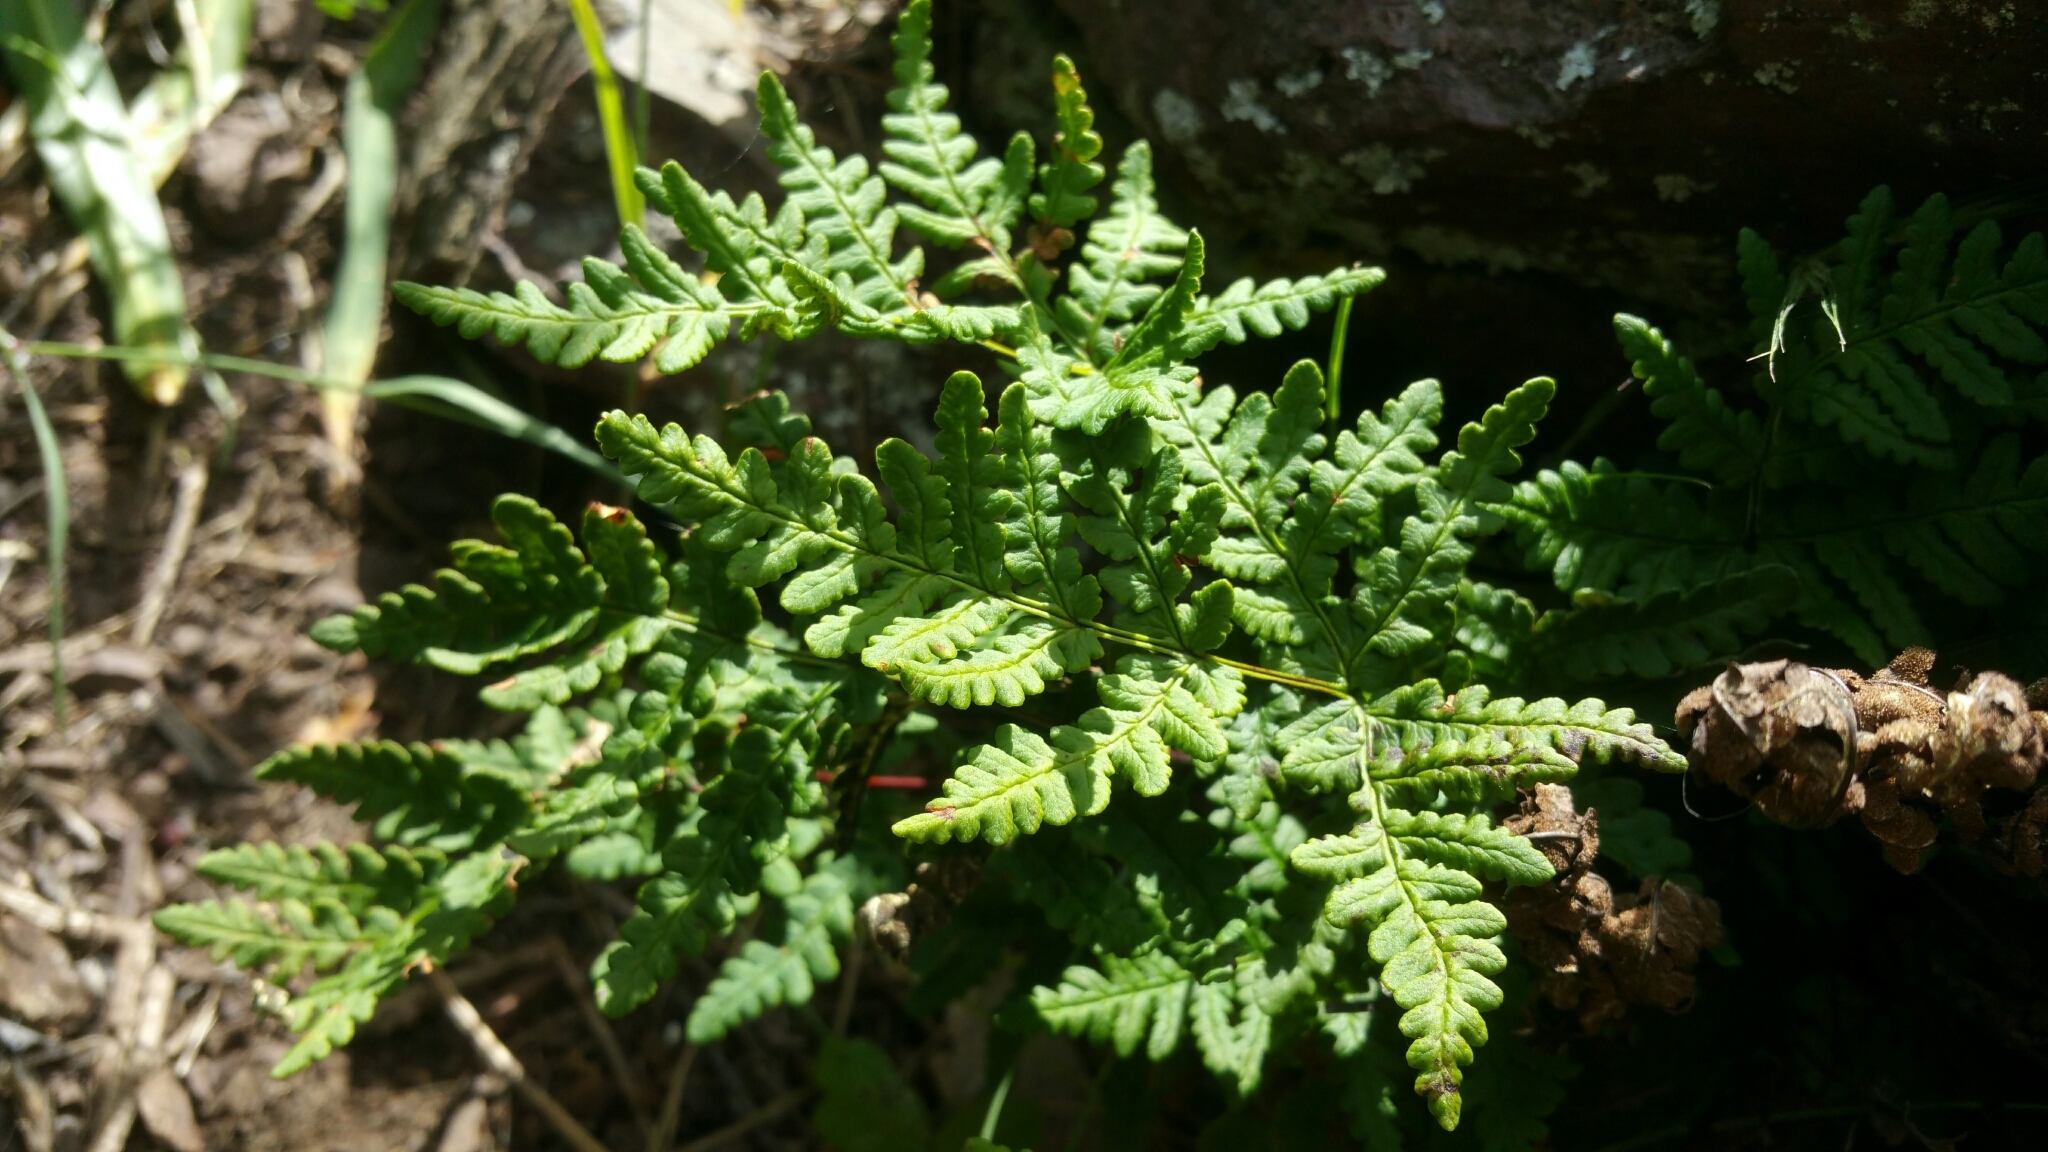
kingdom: Plantae
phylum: Tracheophyta
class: Polypodiopsida
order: Polypodiales
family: Pteridaceae
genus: Pentagramma
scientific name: Pentagramma triangularis
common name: Gold fern
